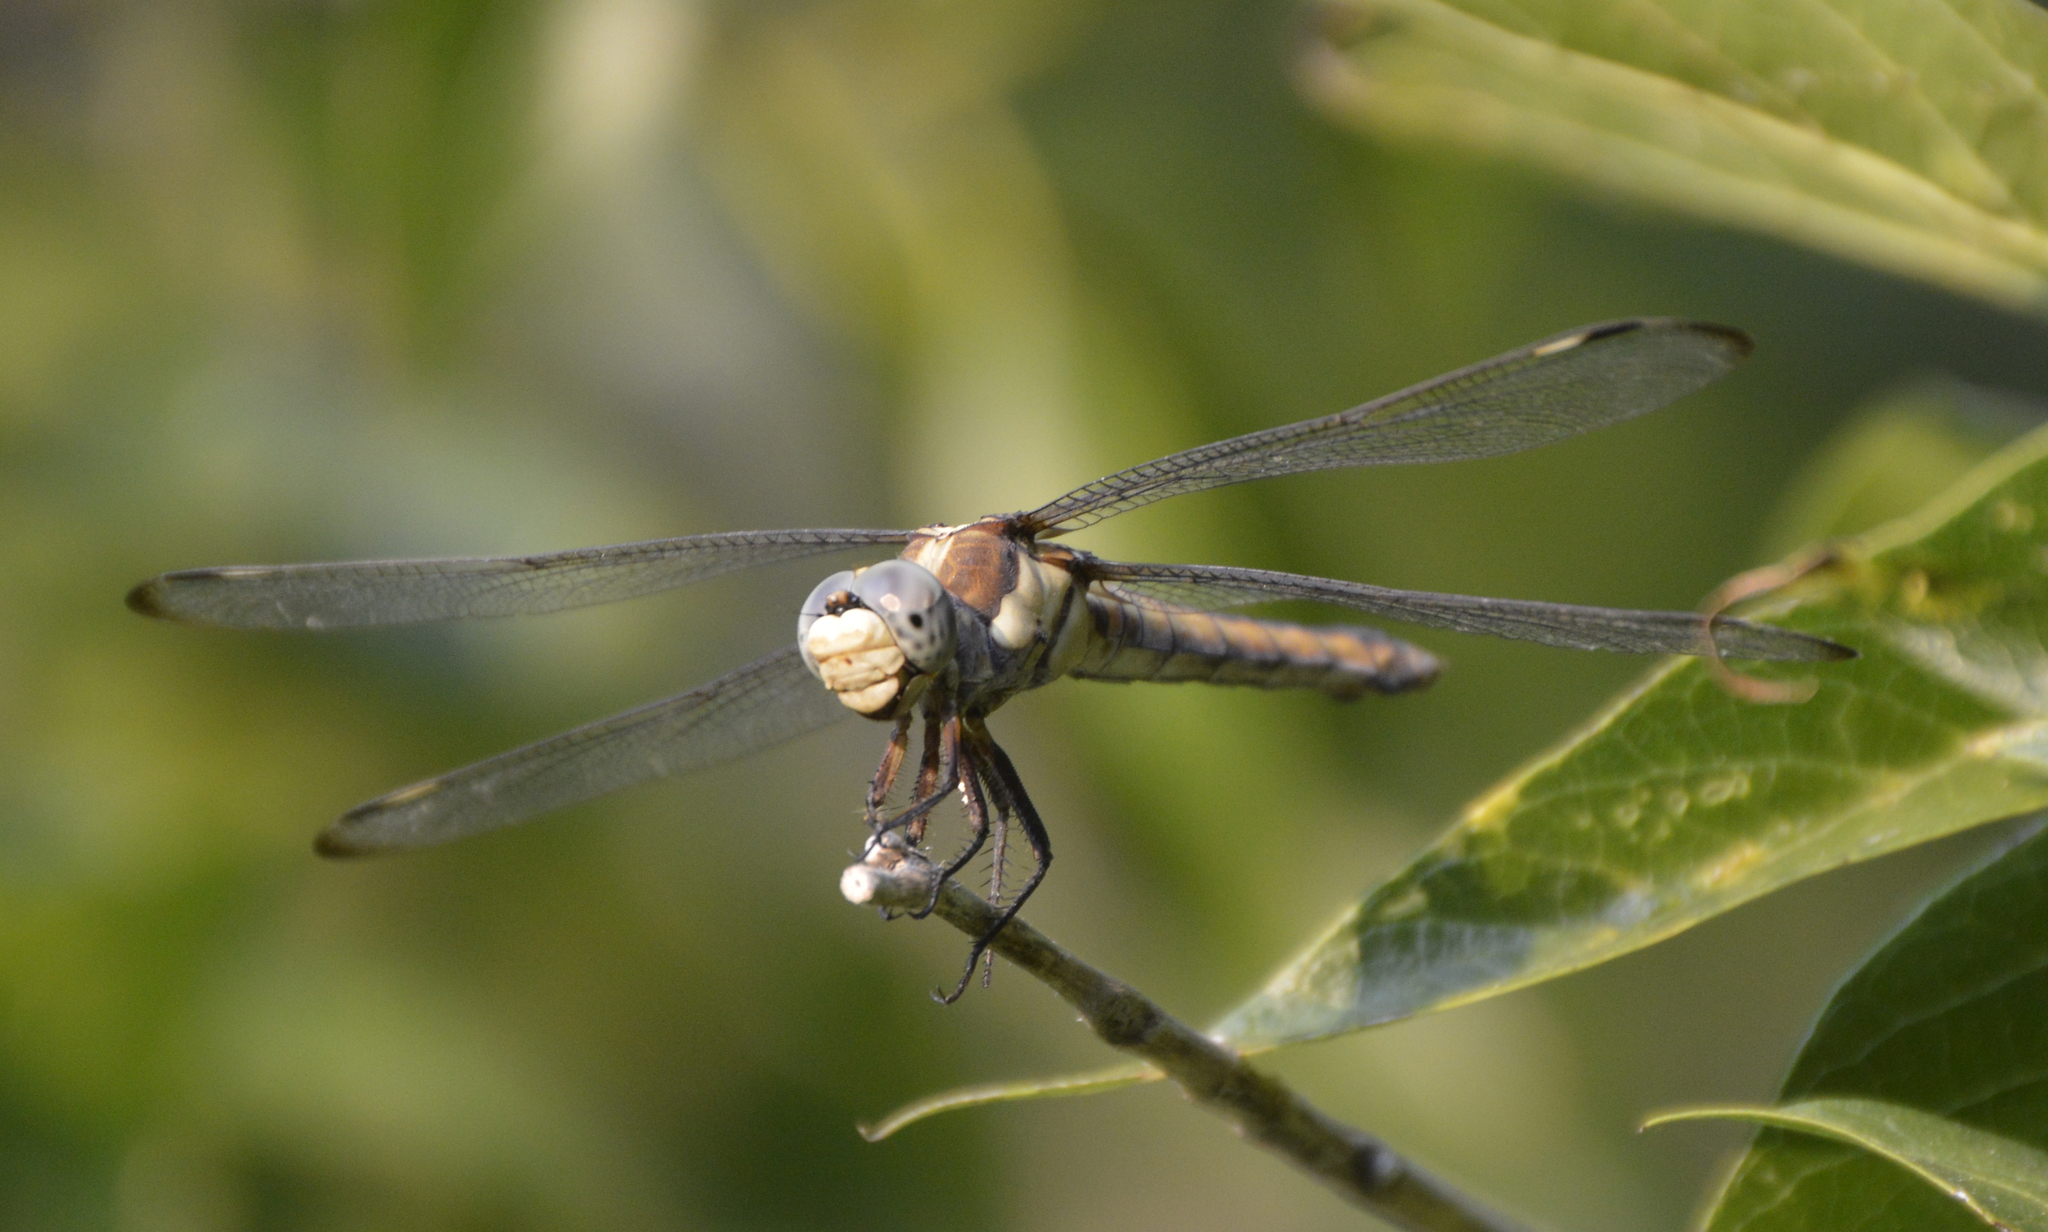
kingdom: Animalia
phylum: Arthropoda
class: Insecta
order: Odonata
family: Libellulidae
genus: Libellula
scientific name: Libellula comanche
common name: Comanche skimmer
